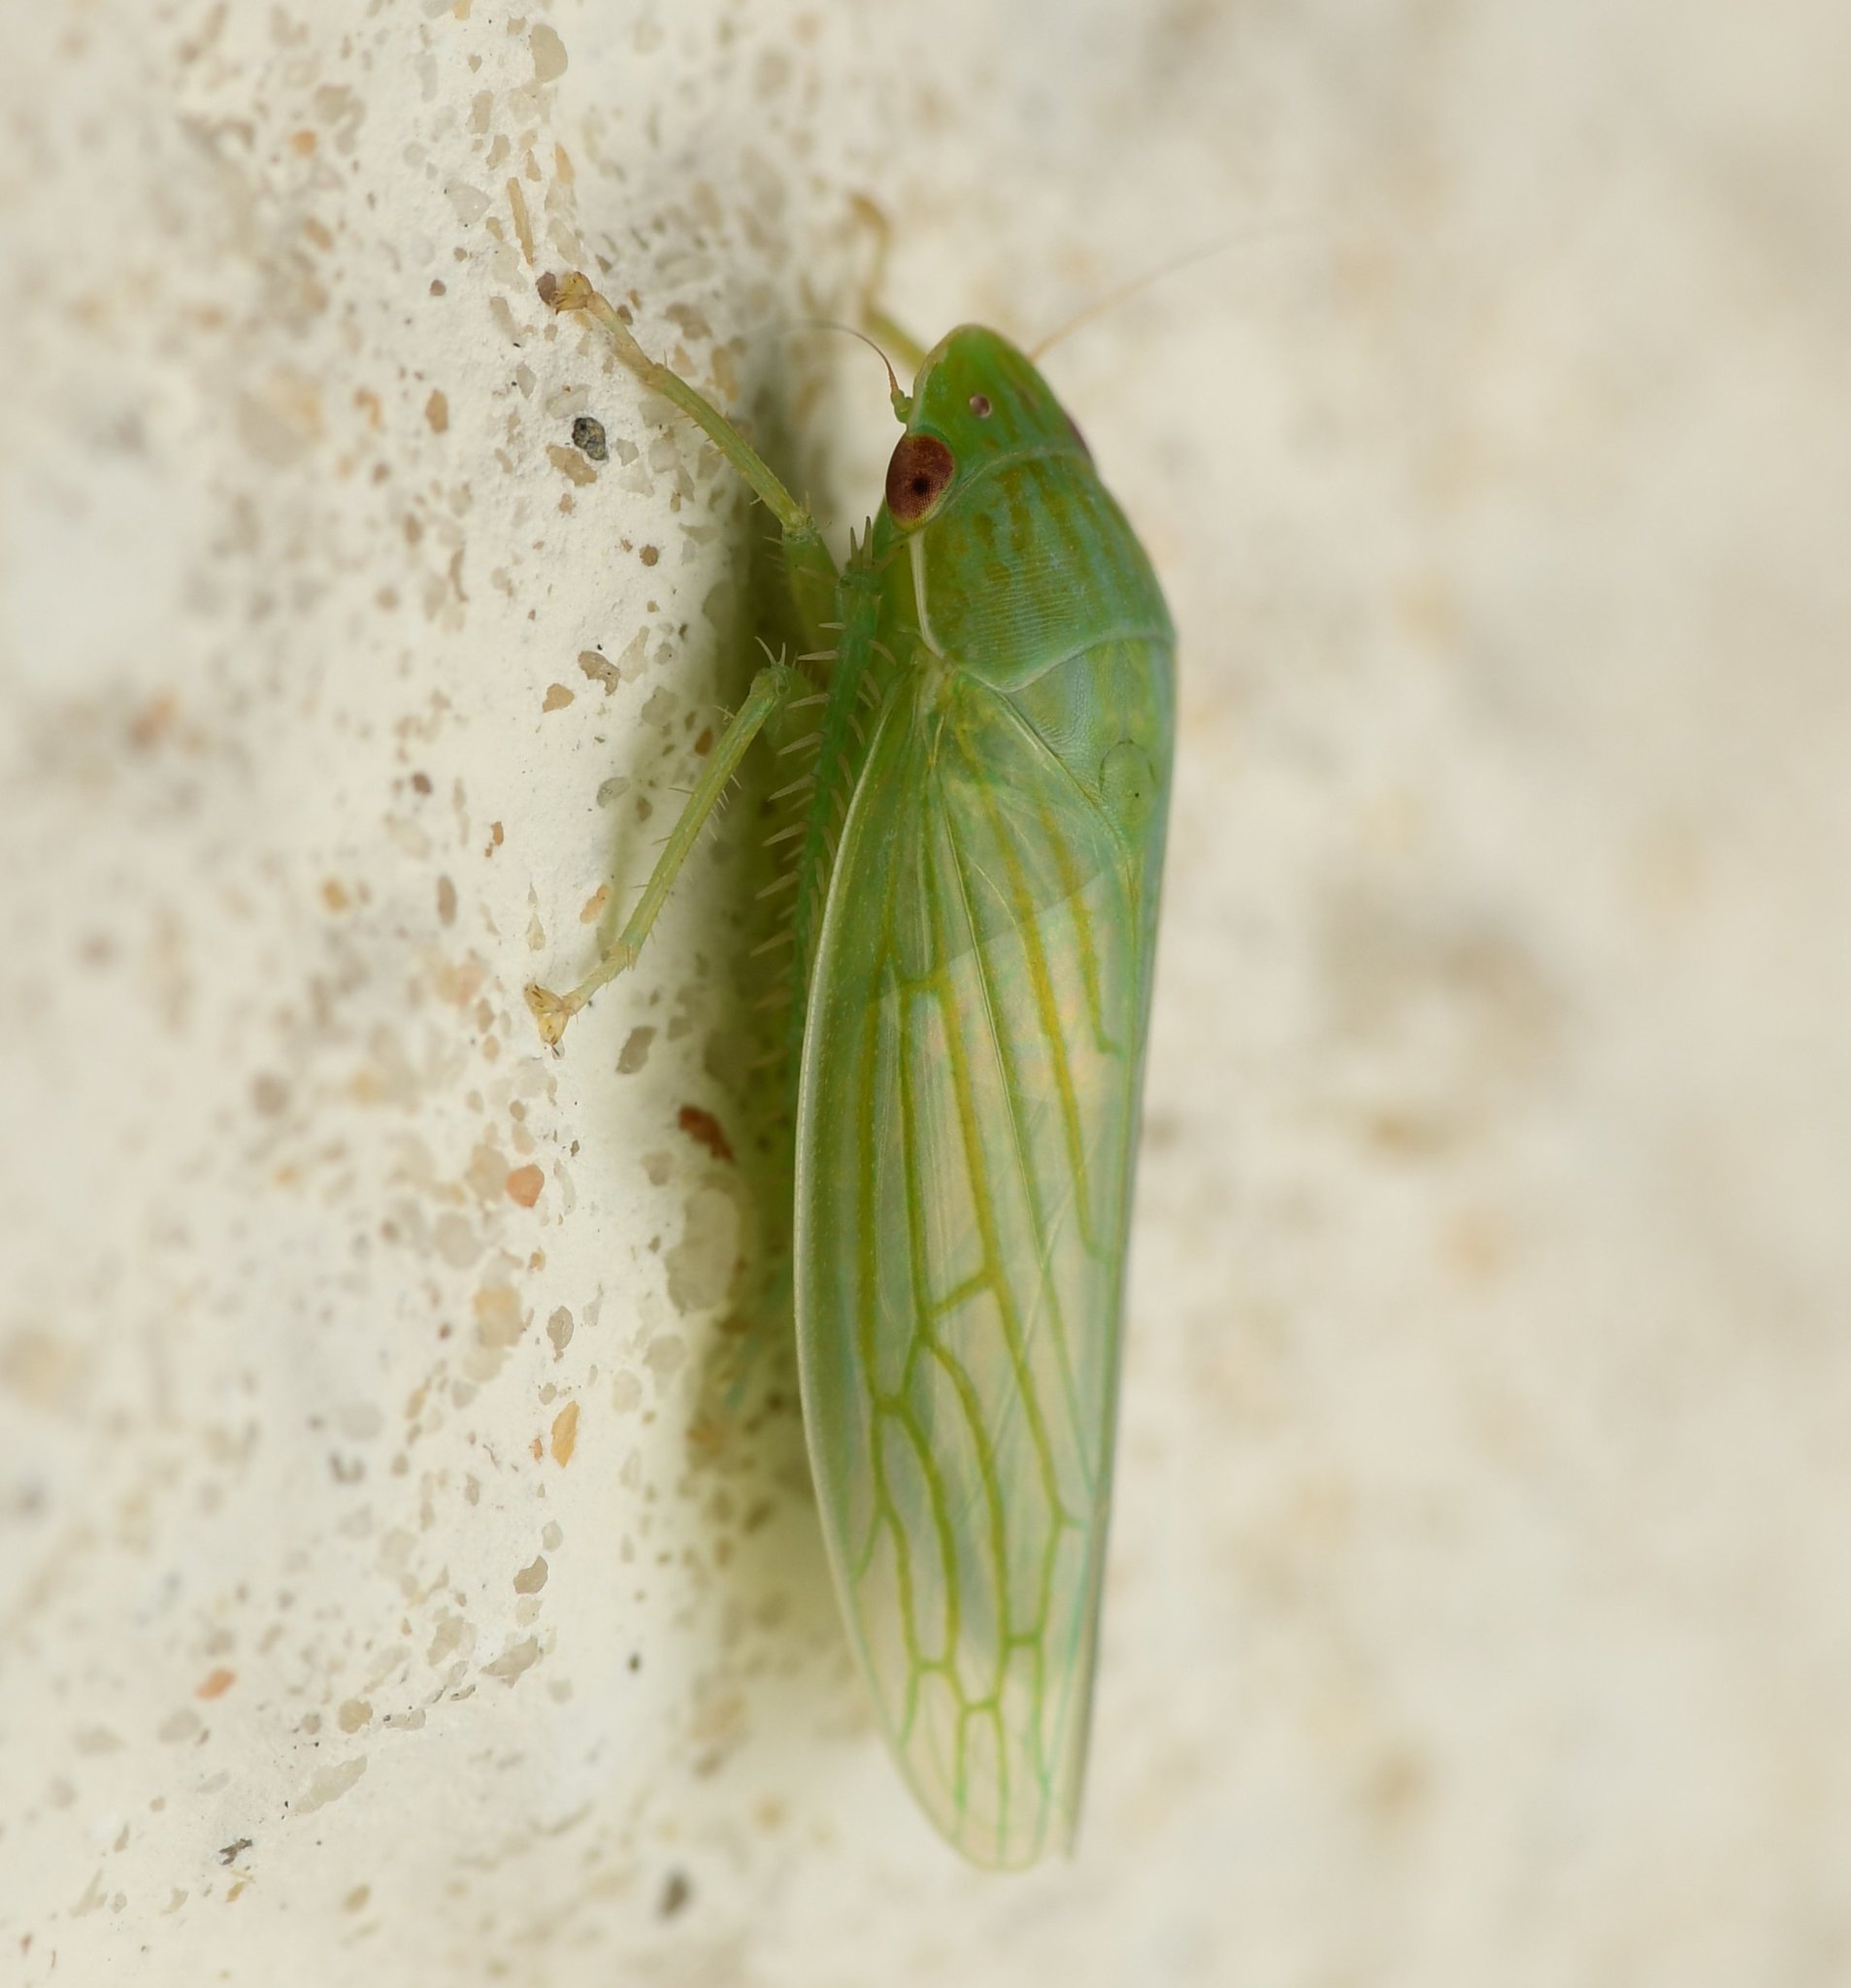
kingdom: Animalia
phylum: Arthropoda
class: Insecta
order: Hemiptera
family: Cicadellidae
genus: Gyponana
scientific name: Gyponana tenella
